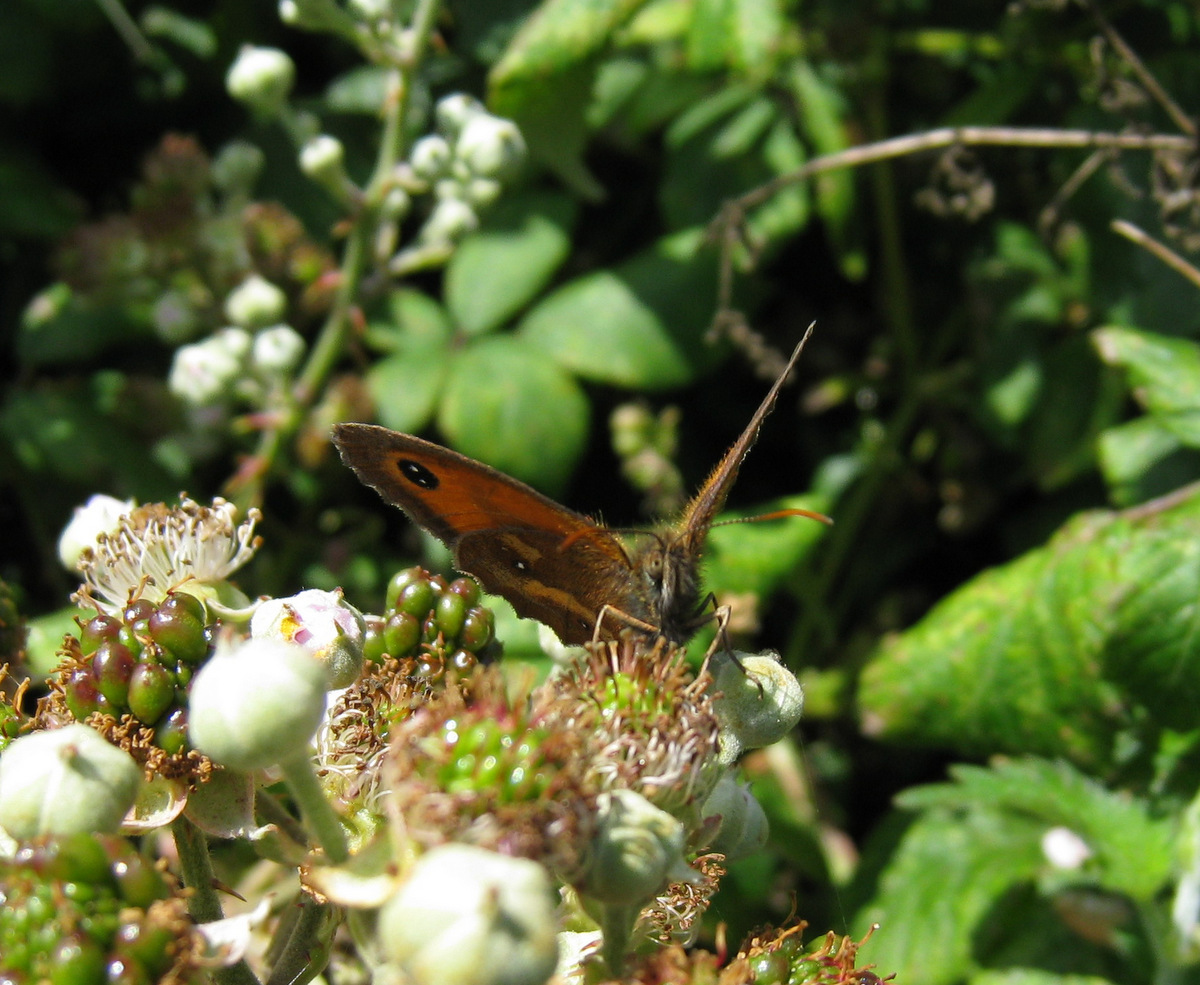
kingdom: Animalia
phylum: Arthropoda
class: Insecta
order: Lepidoptera
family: Nymphalidae
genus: Pyronia
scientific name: Pyronia tithonus
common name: Gatekeeper
